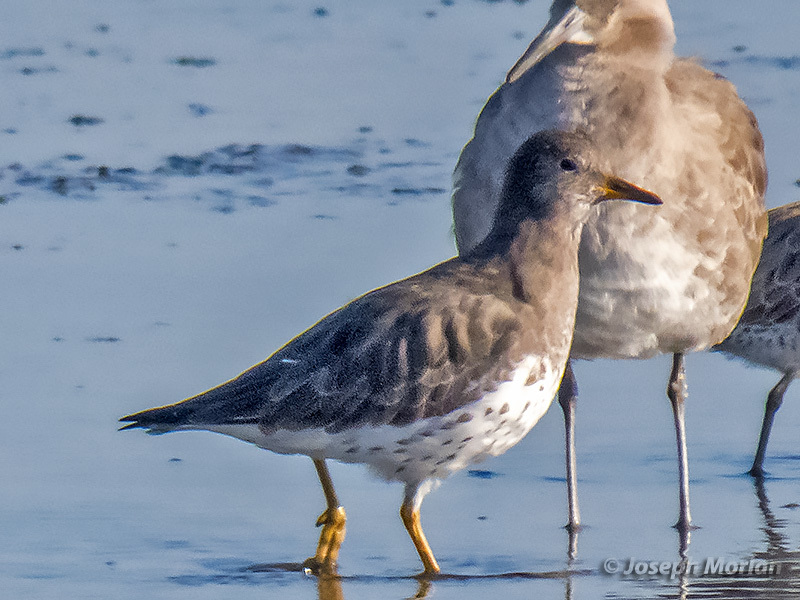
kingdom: Animalia
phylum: Chordata
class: Aves
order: Charadriiformes
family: Scolopacidae
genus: Calidris
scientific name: Calidris virgata
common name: Surfbird
